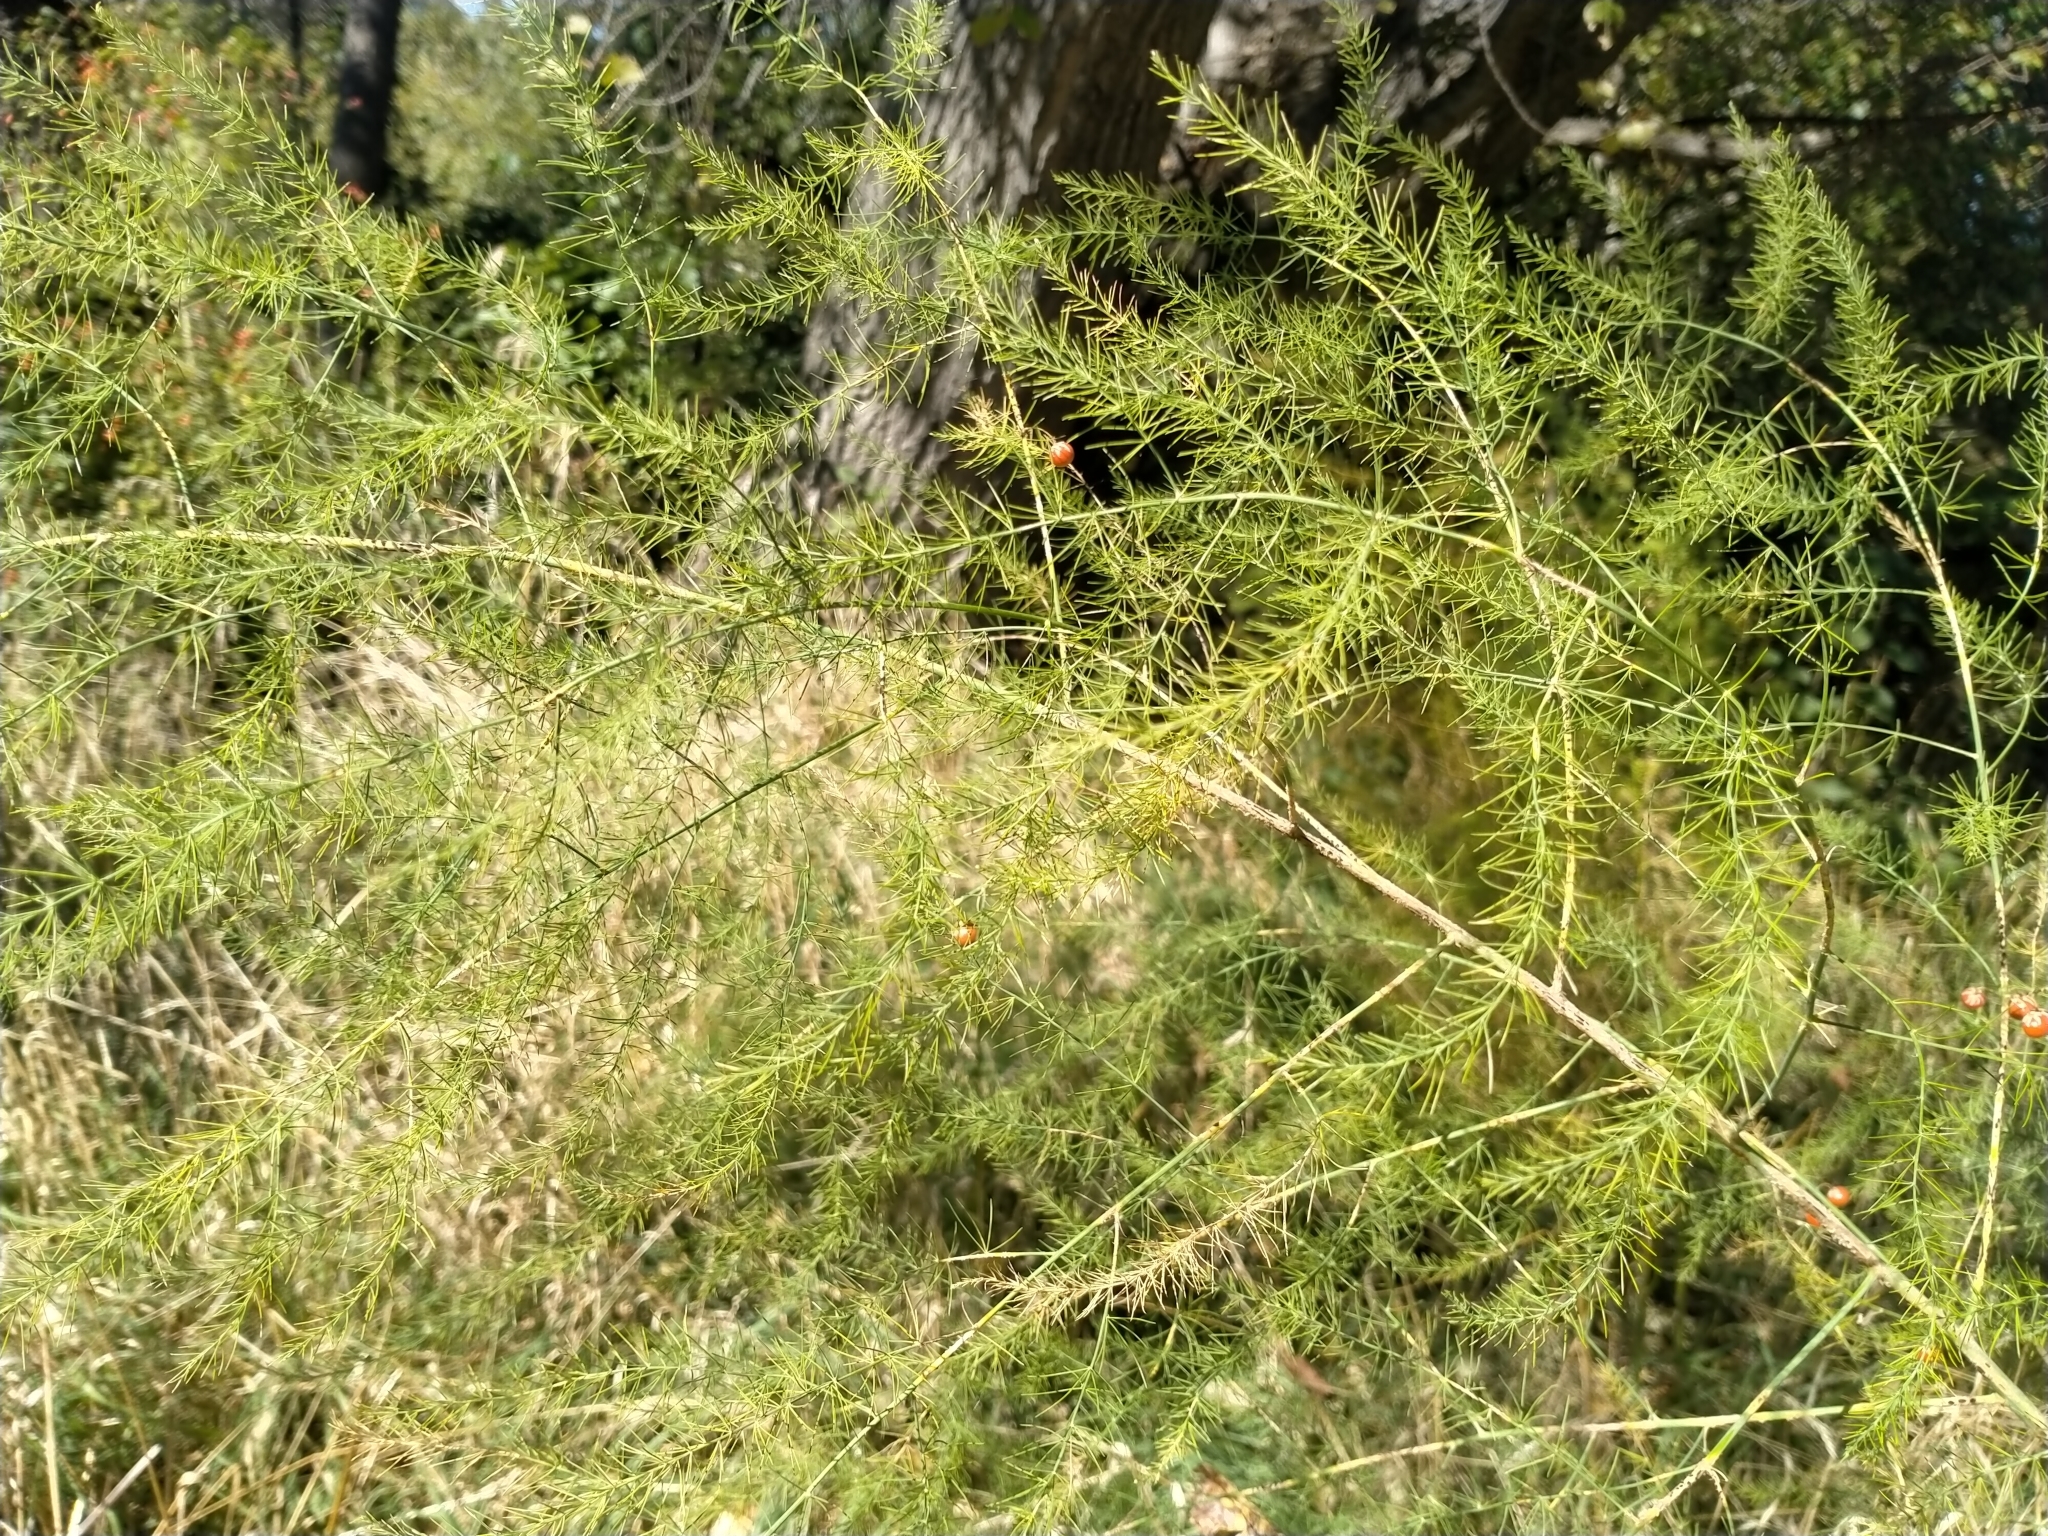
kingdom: Plantae
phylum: Tracheophyta
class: Liliopsida
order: Asparagales
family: Asparagaceae
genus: Asparagus
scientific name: Asparagus officinalis
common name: Garden asparagus
